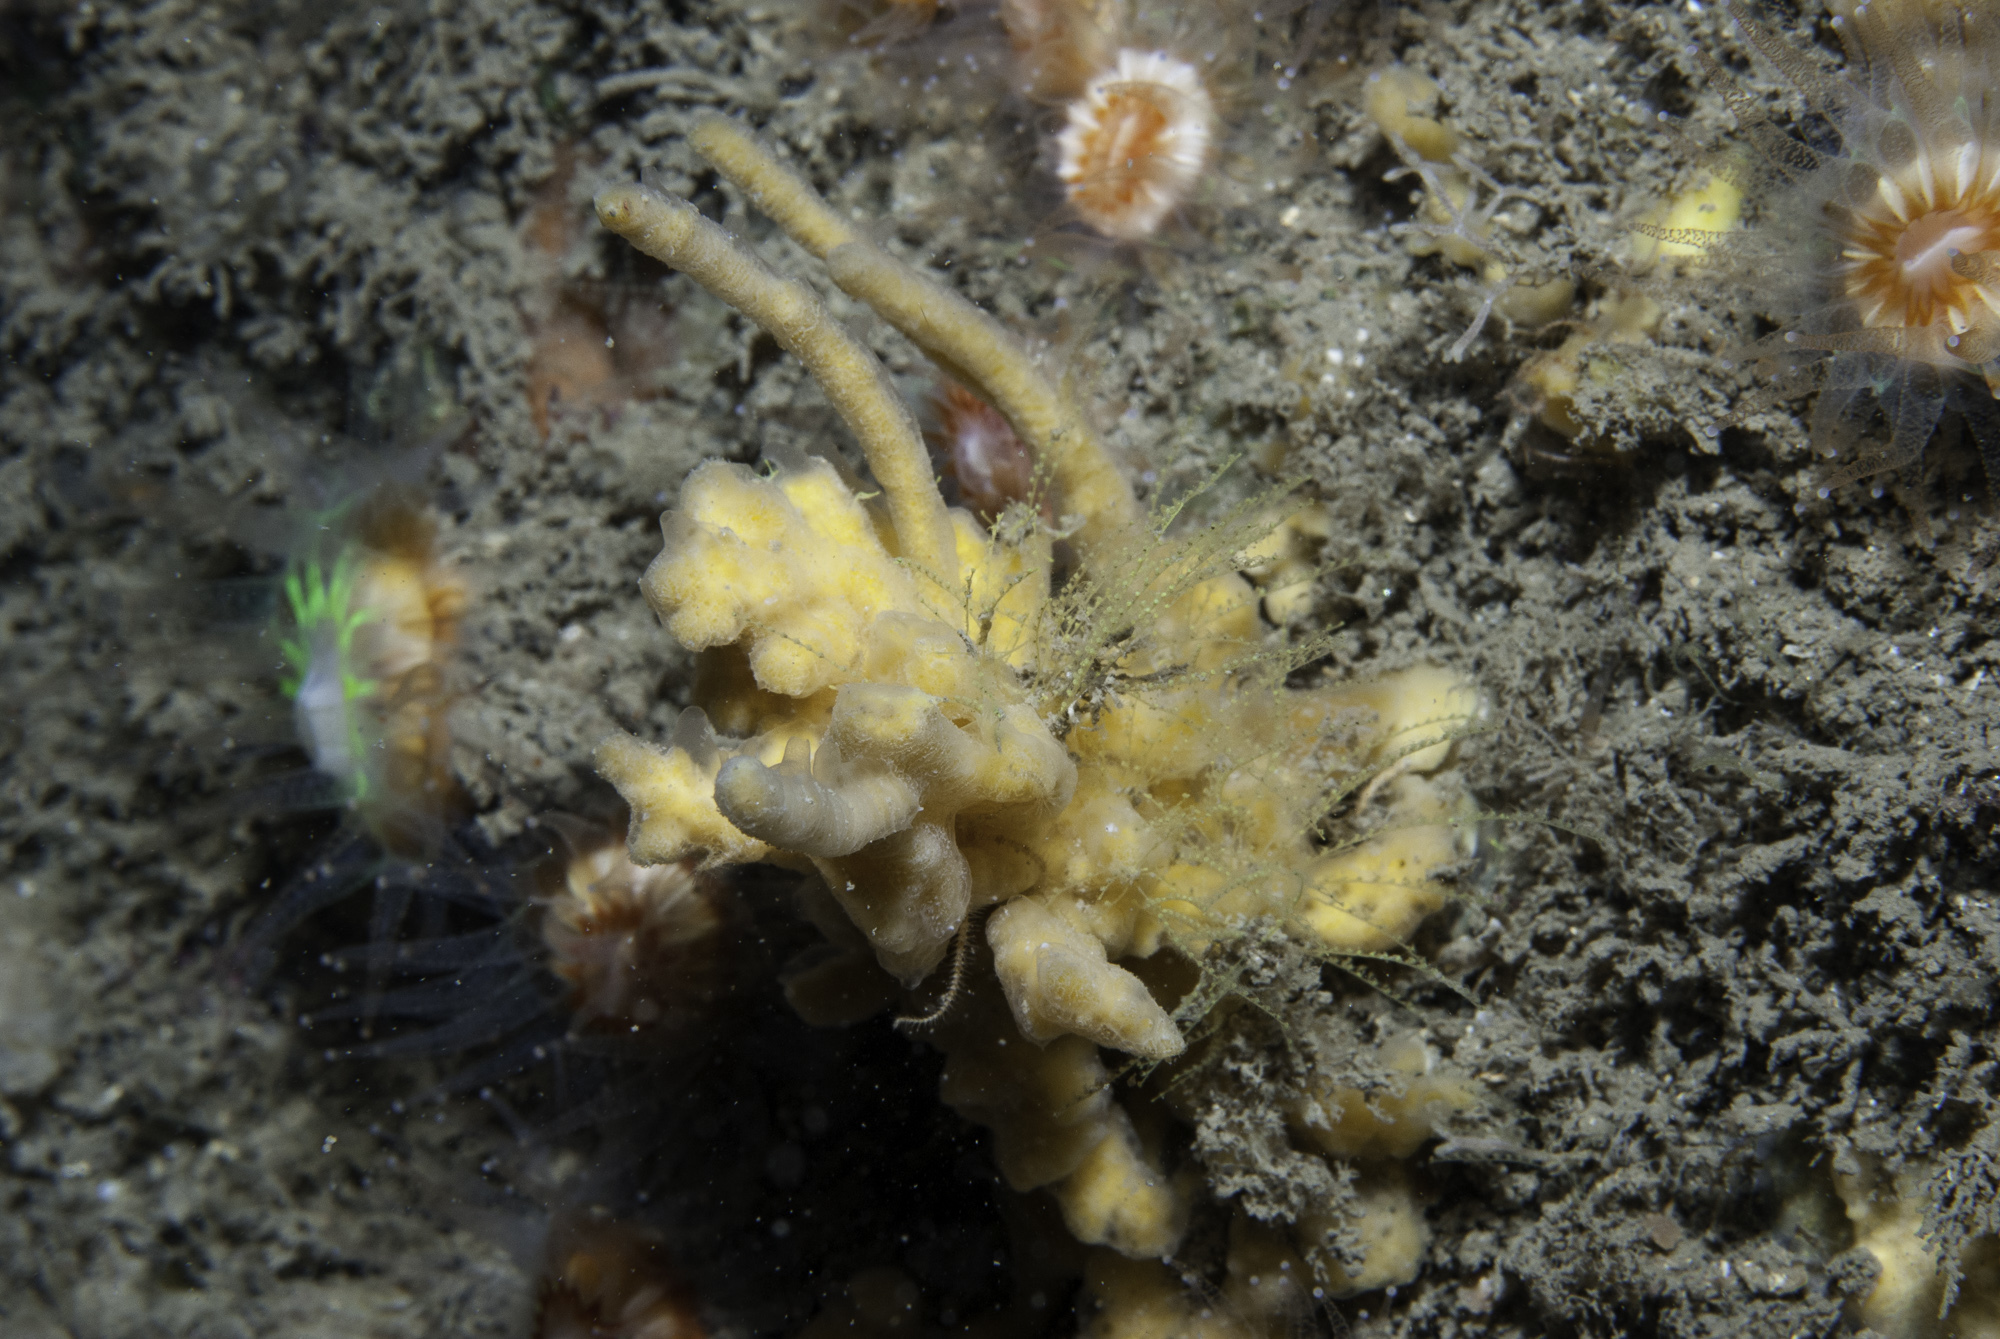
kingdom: Animalia
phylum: Porifera
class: Demospongiae
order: Poecilosclerida
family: Acarnidae
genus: Iophon
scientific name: Iophon hyndmani
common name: Hyndman's horny sponge
